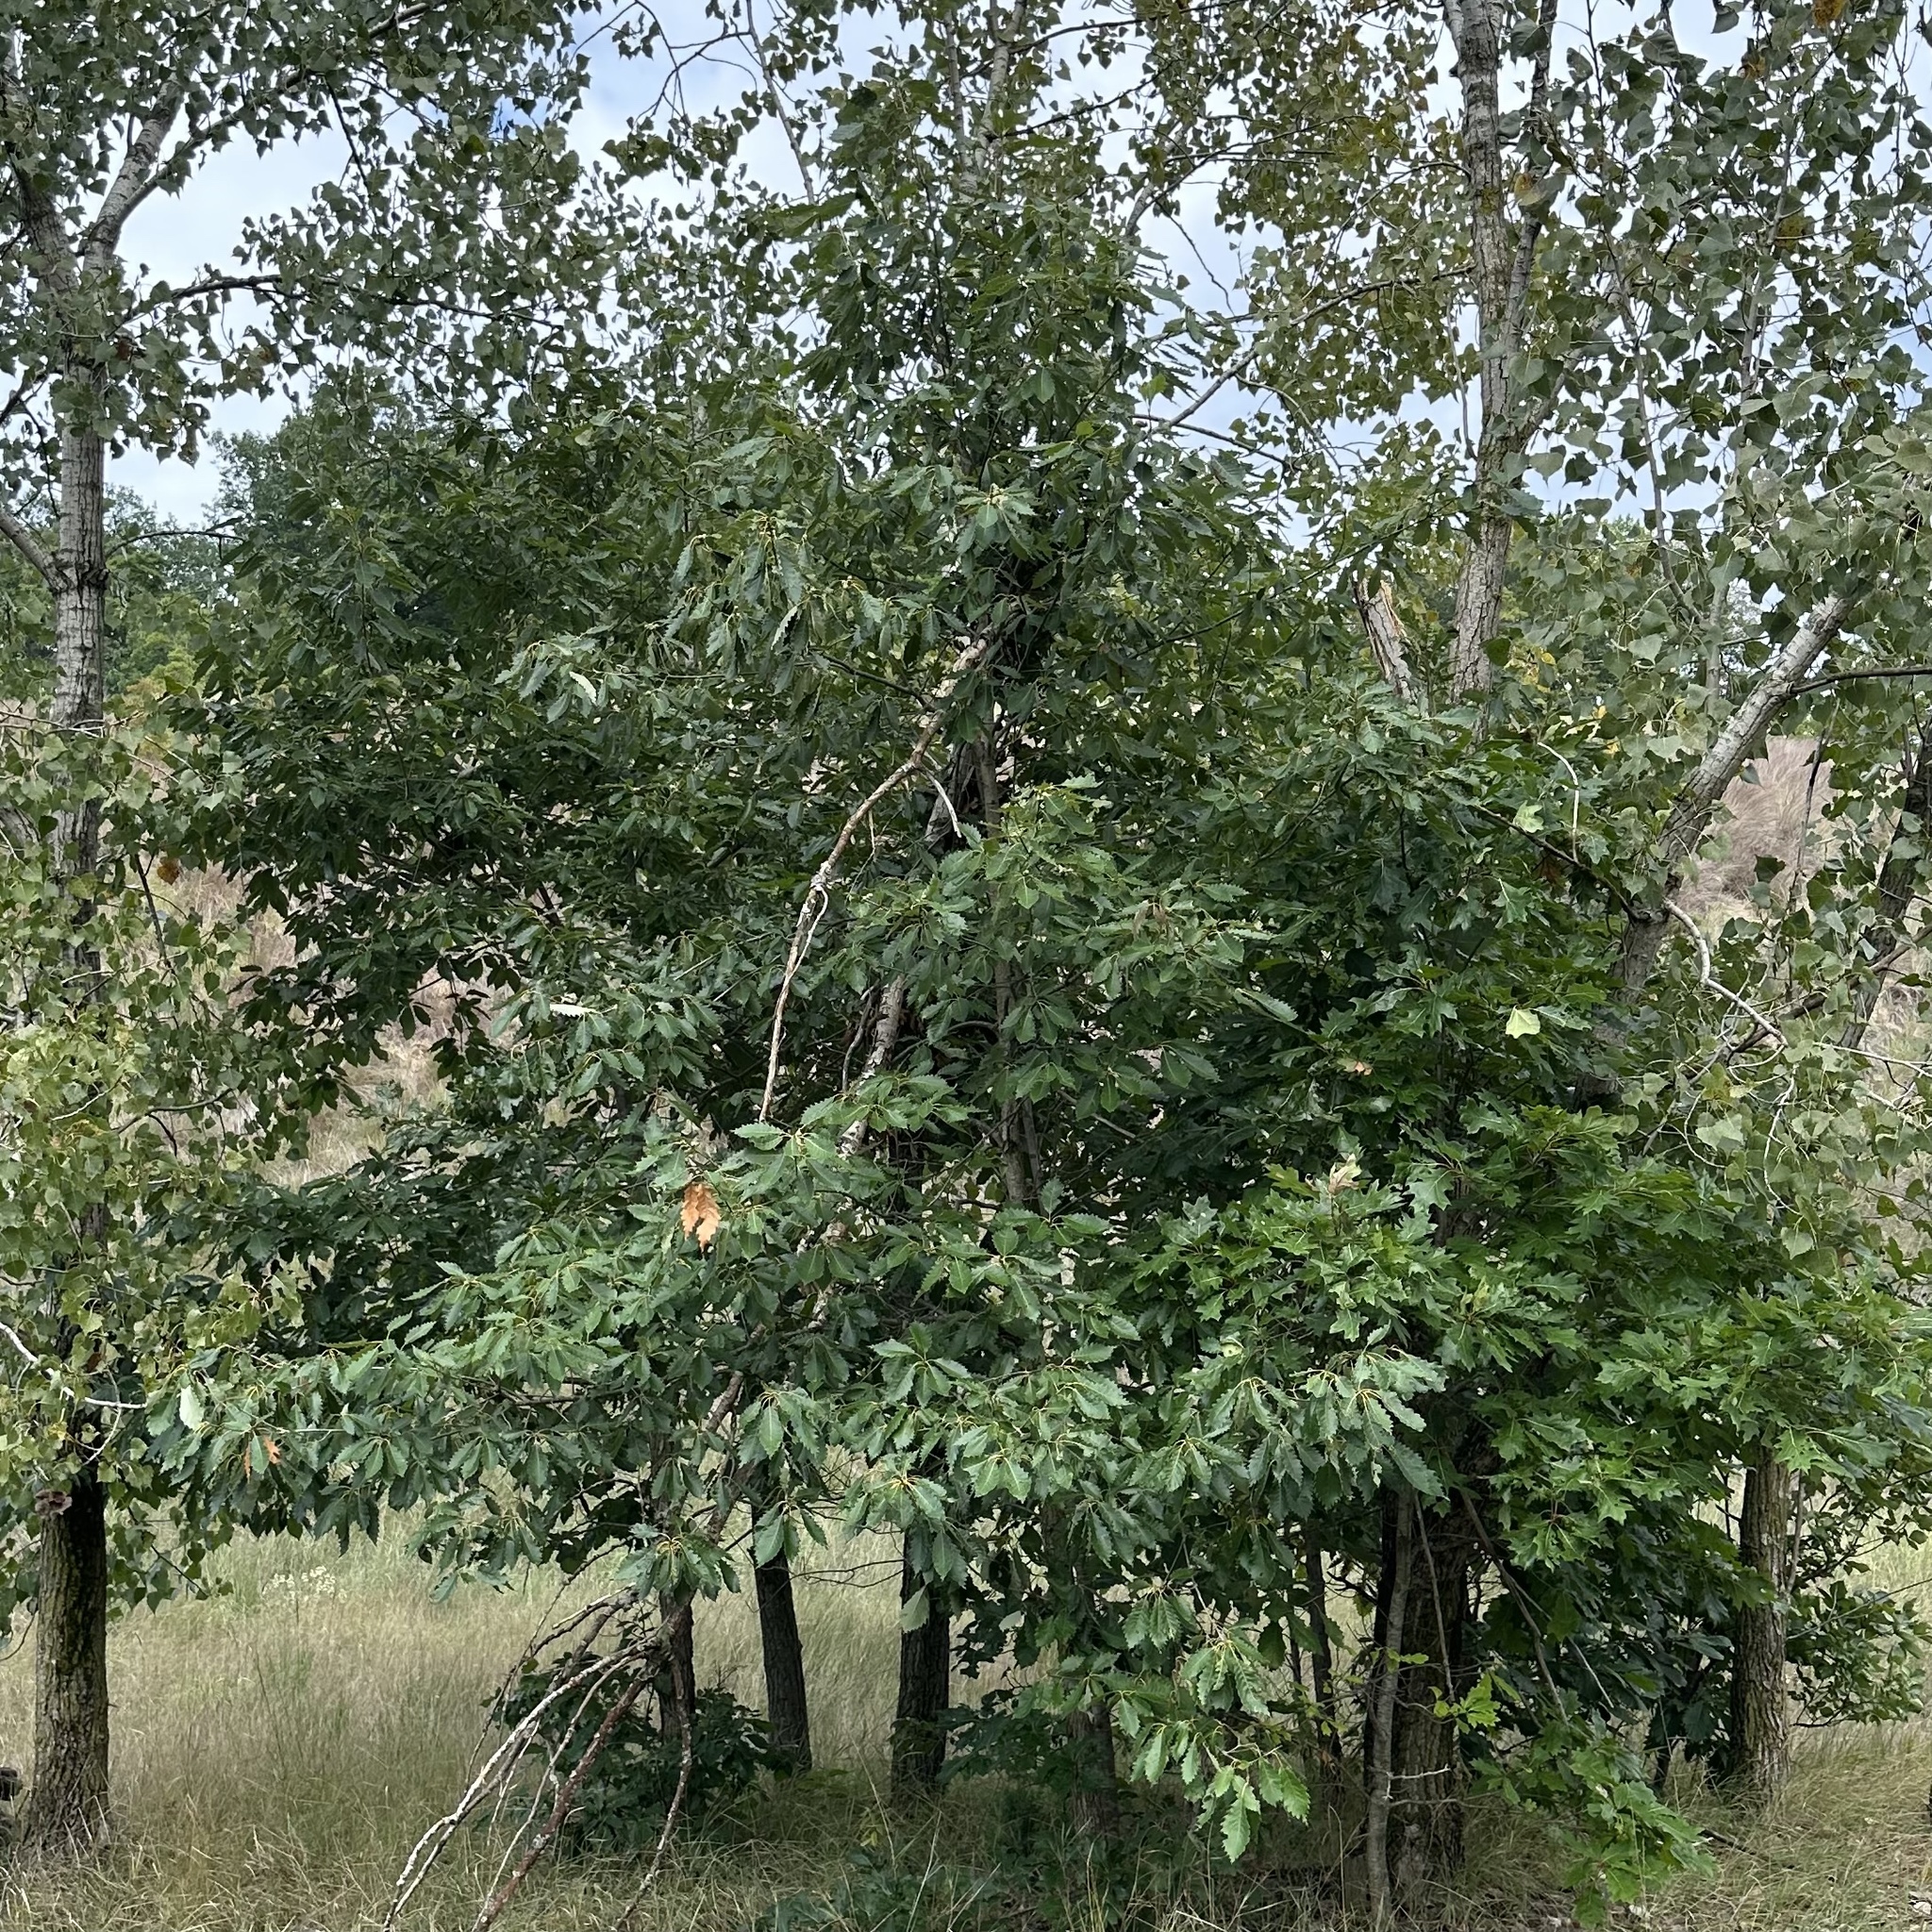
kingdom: Plantae
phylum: Tracheophyta
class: Magnoliopsida
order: Fagales
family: Fagaceae
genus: Quercus
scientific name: Quercus muehlenbergii
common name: Chinkapin oak
